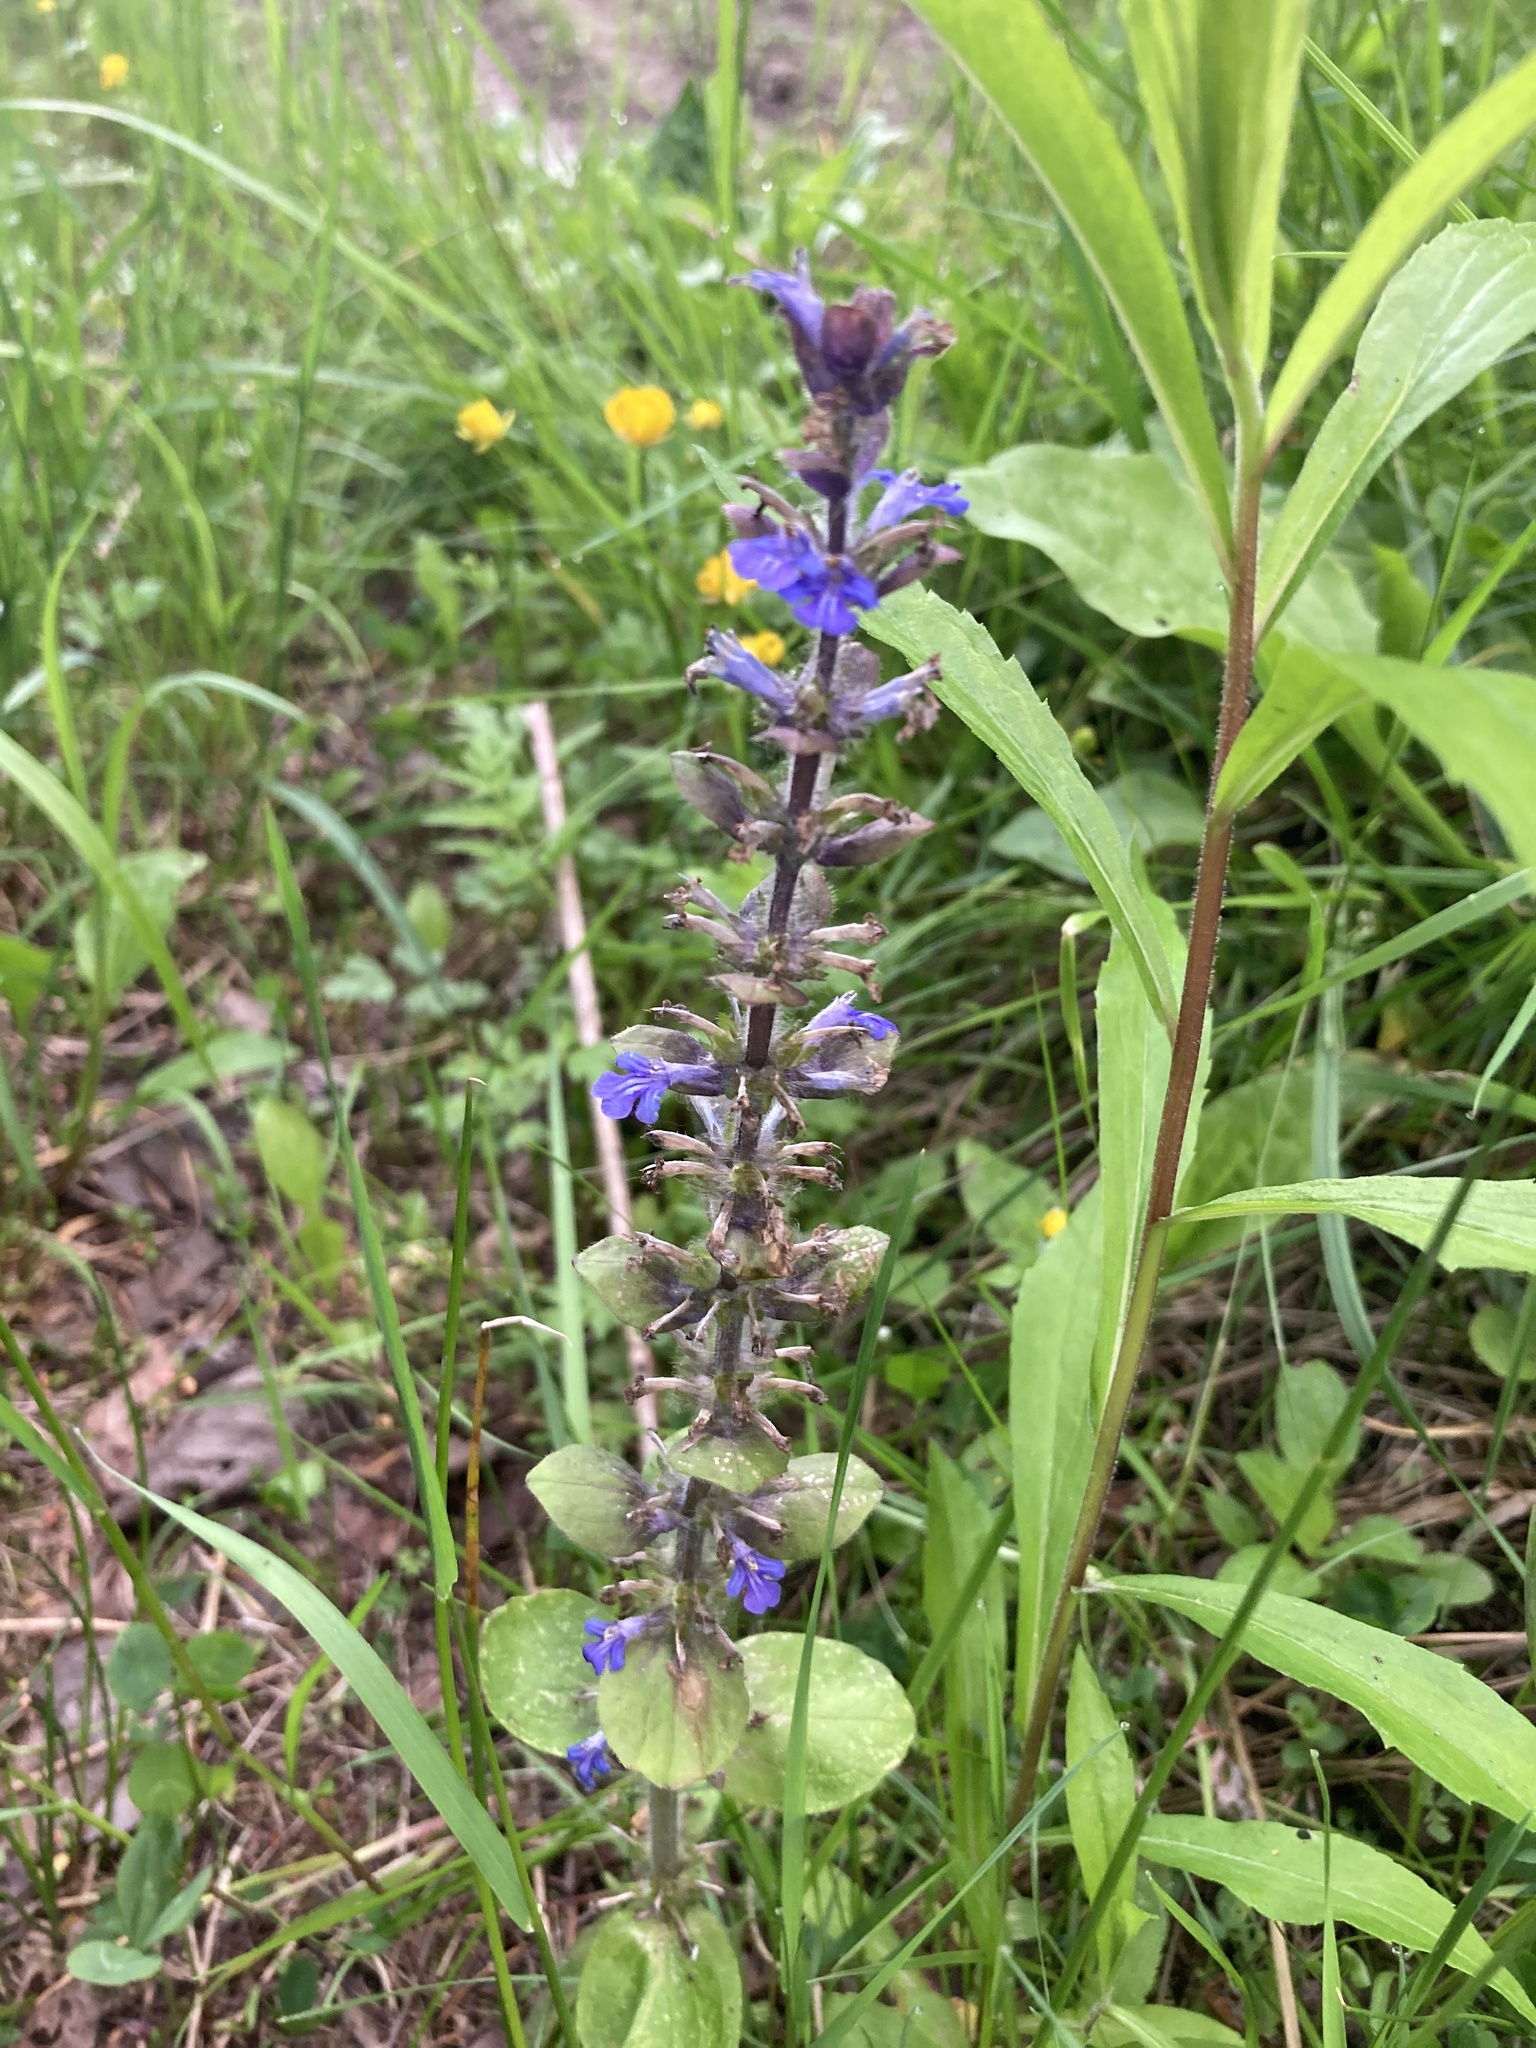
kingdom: Plantae
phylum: Tracheophyta
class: Magnoliopsida
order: Lamiales
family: Lamiaceae
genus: Ajuga
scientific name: Ajuga reptans
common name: Bugle
